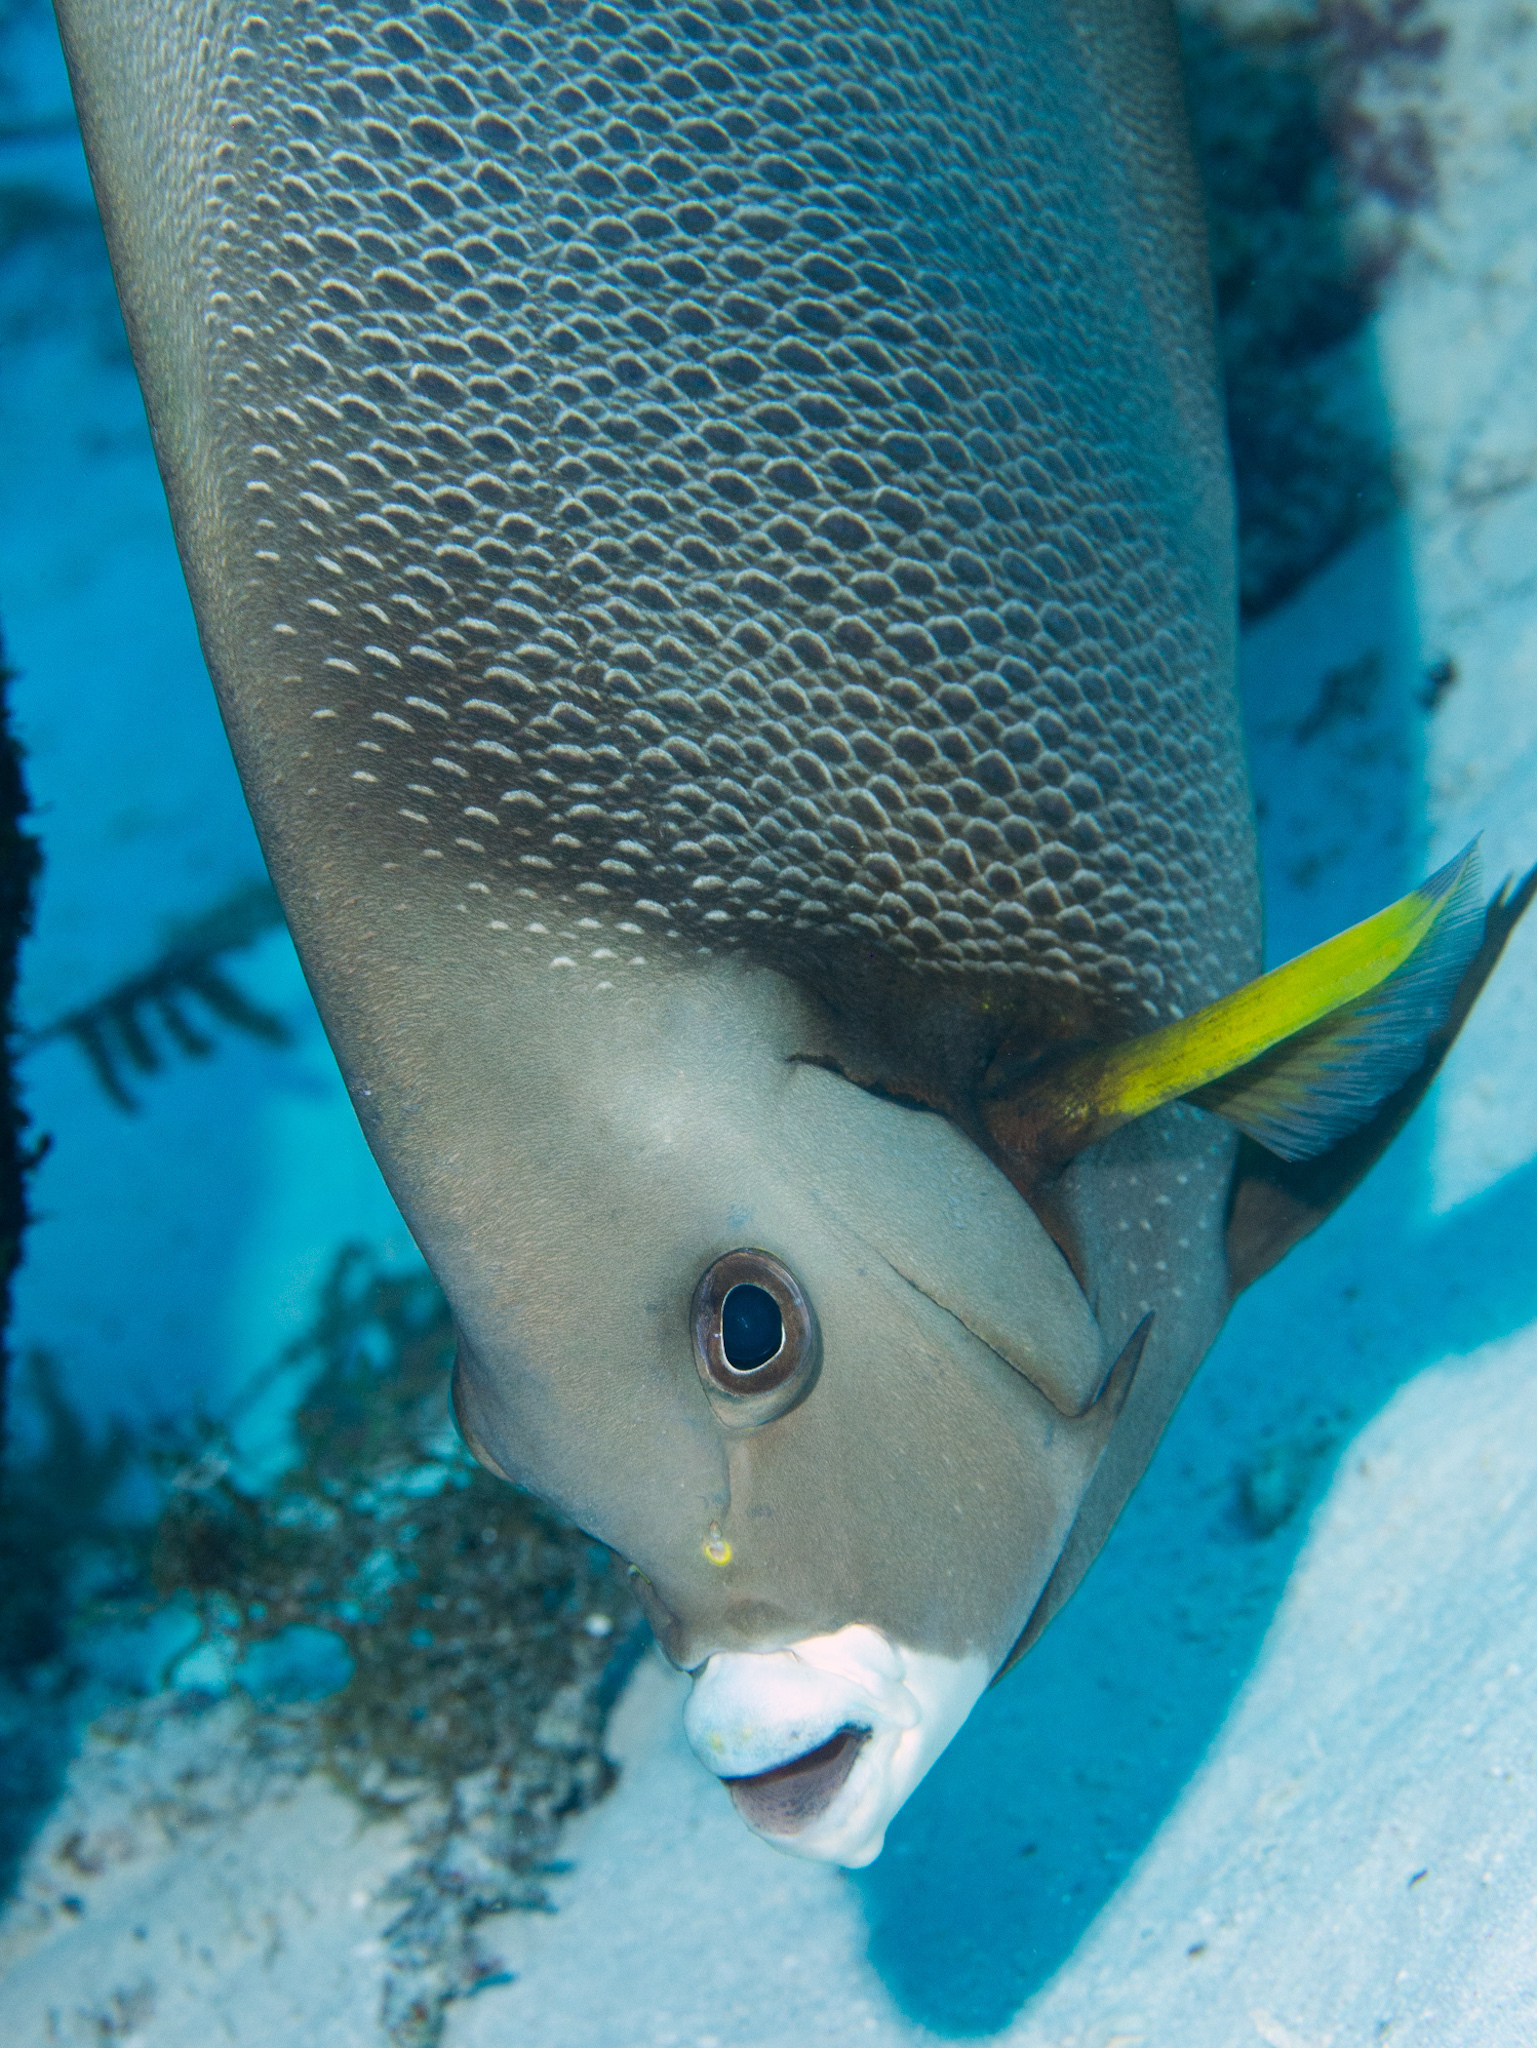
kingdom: Animalia
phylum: Chordata
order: Perciformes
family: Pomacanthidae
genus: Pomacanthus
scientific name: Pomacanthus arcuatus
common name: Gray angelfish
